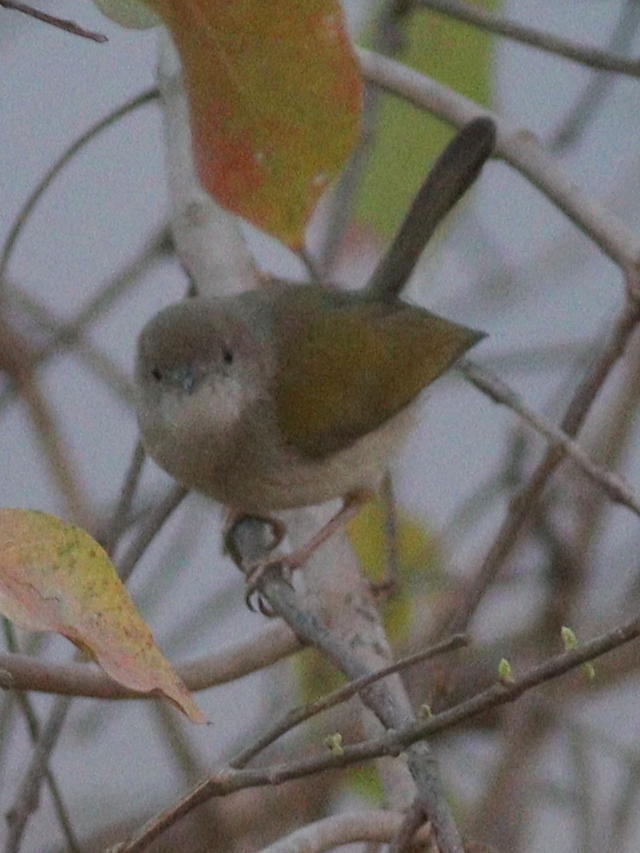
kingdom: Animalia
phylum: Chordata
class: Aves
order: Passeriformes
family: Cisticolidae
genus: Camaroptera
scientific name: Camaroptera brachyura
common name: Green-backed camaroptera
